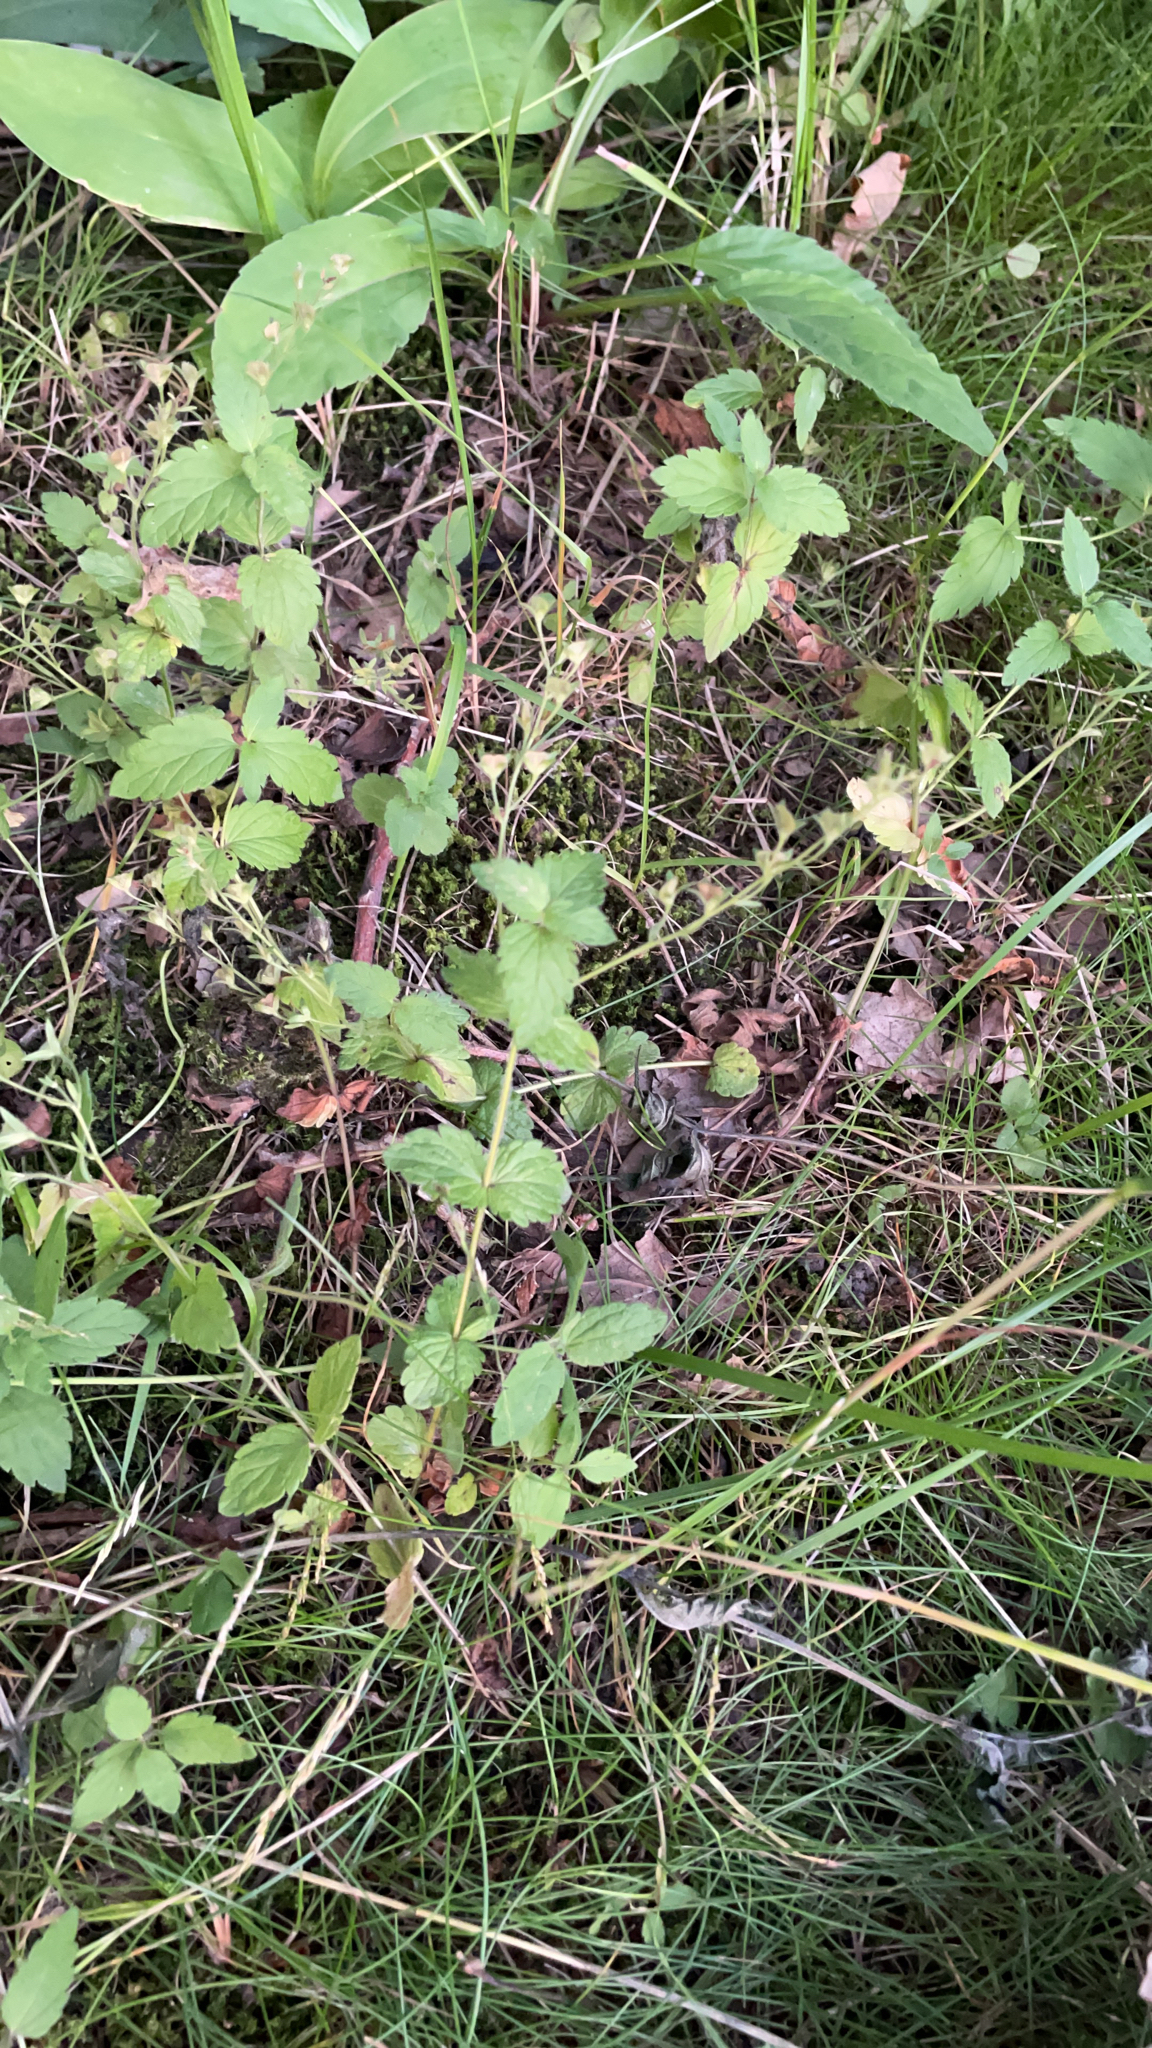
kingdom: Plantae
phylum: Tracheophyta
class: Magnoliopsida
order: Lamiales
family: Plantaginaceae
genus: Veronica
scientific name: Veronica chamaedrys
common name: Germander speedwell
